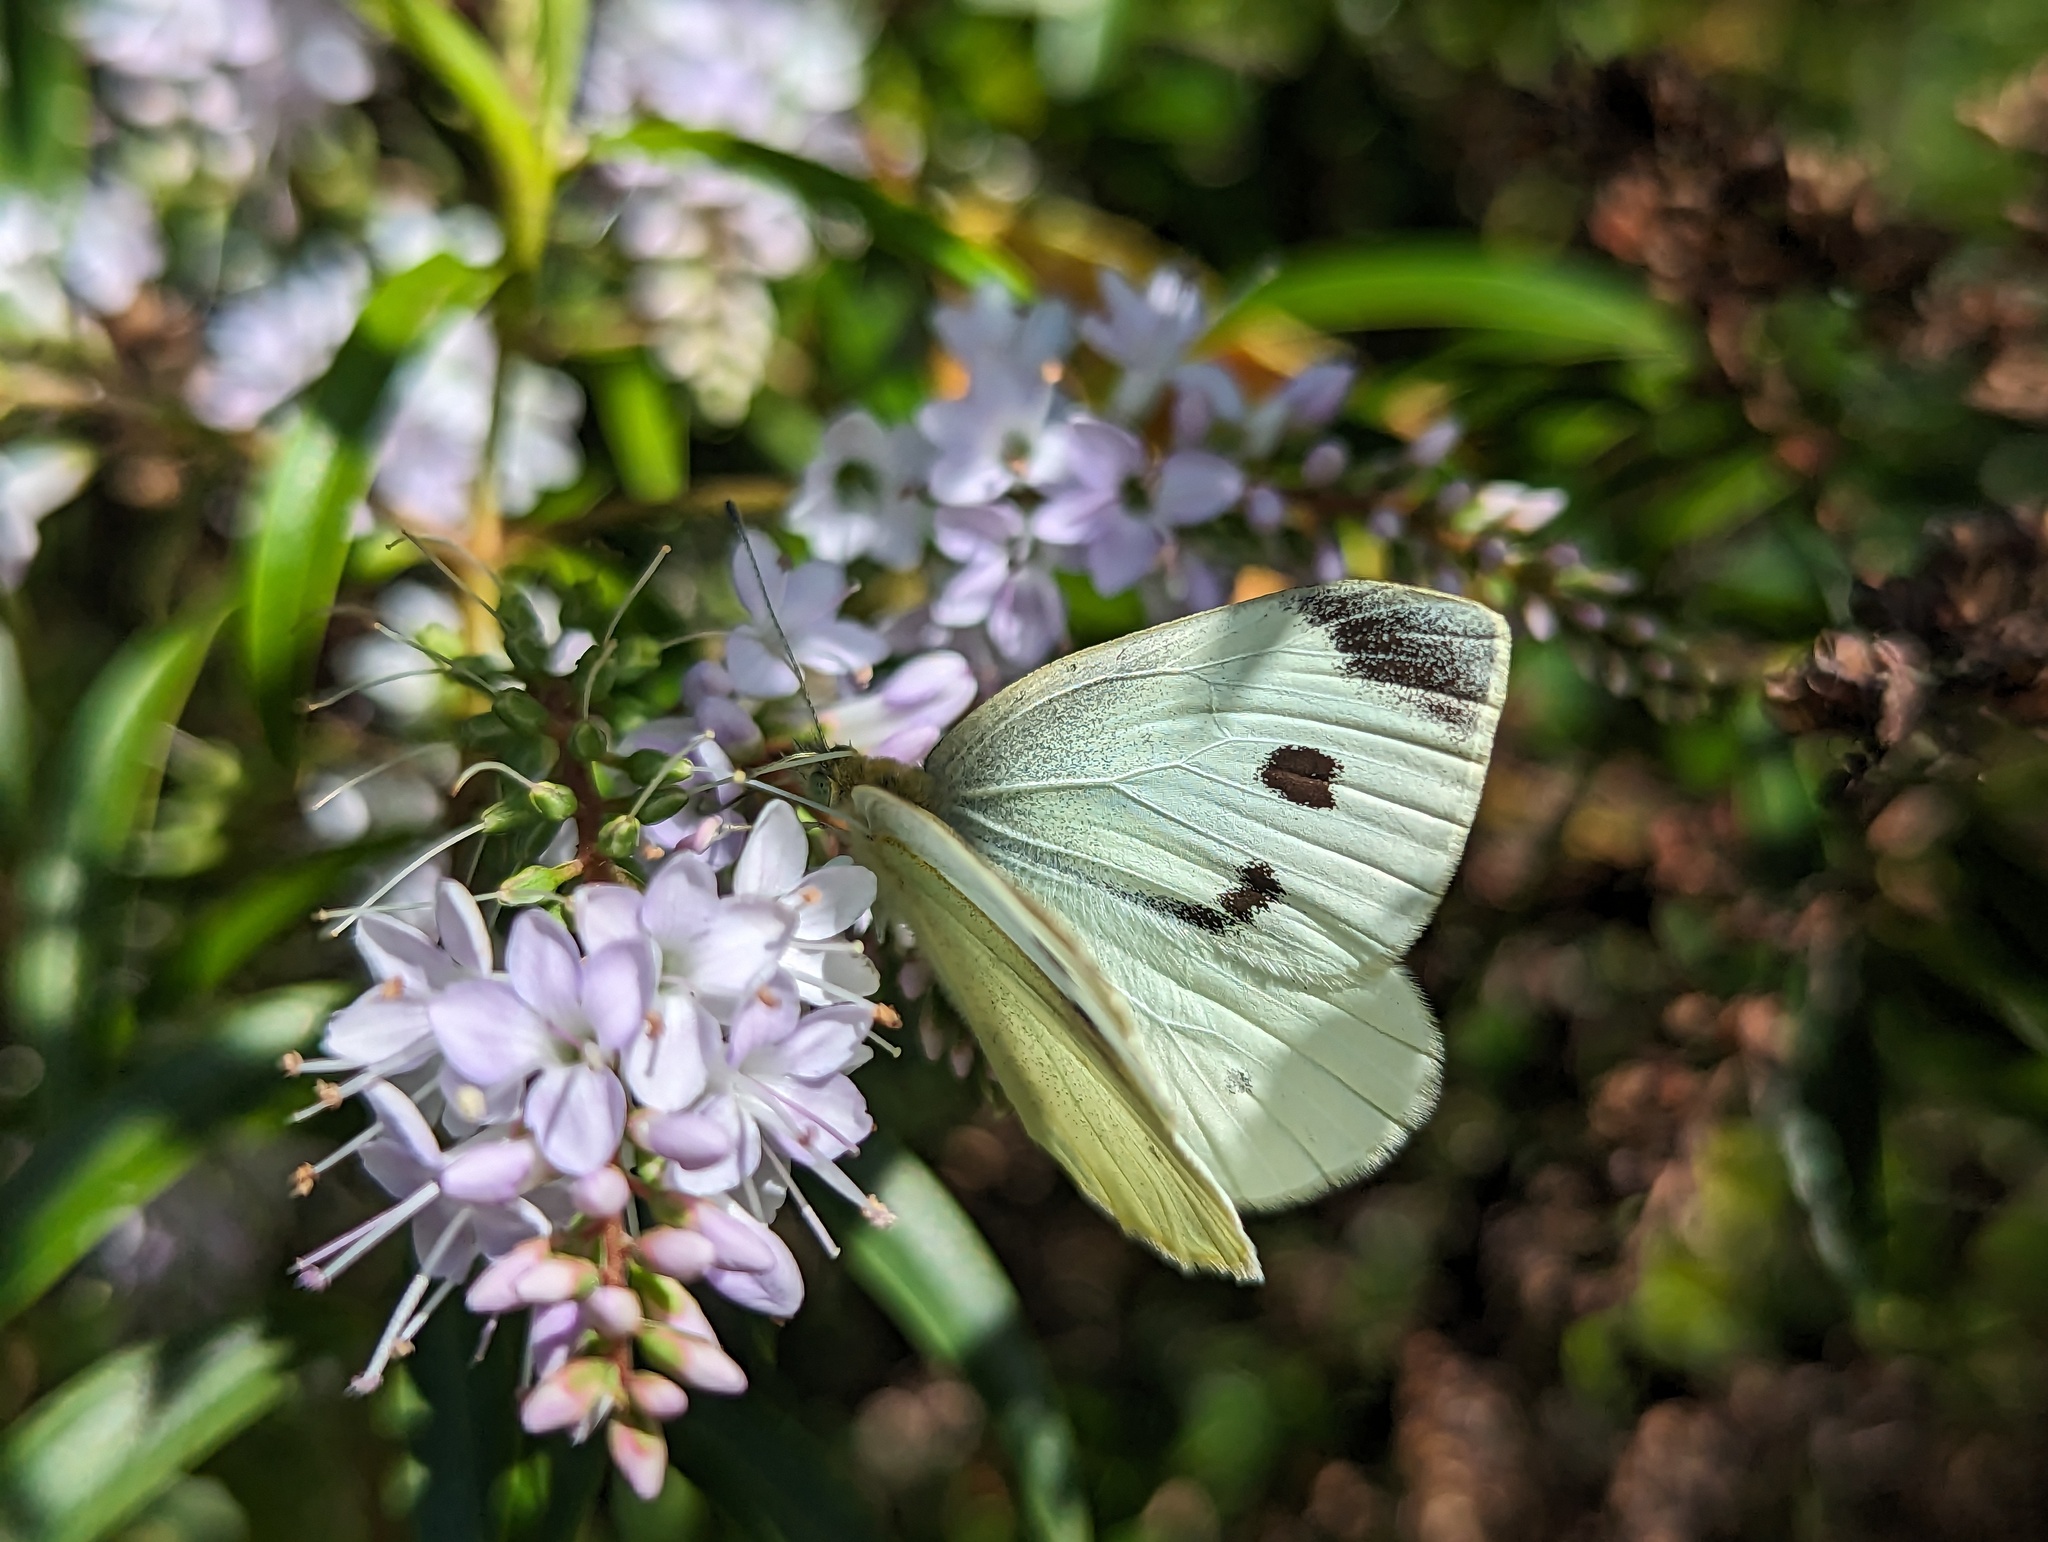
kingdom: Animalia
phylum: Arthropoda
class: Insecta
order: Lepidoptera
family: Pieridae
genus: Pieris
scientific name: Pieris rapae
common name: Small white
